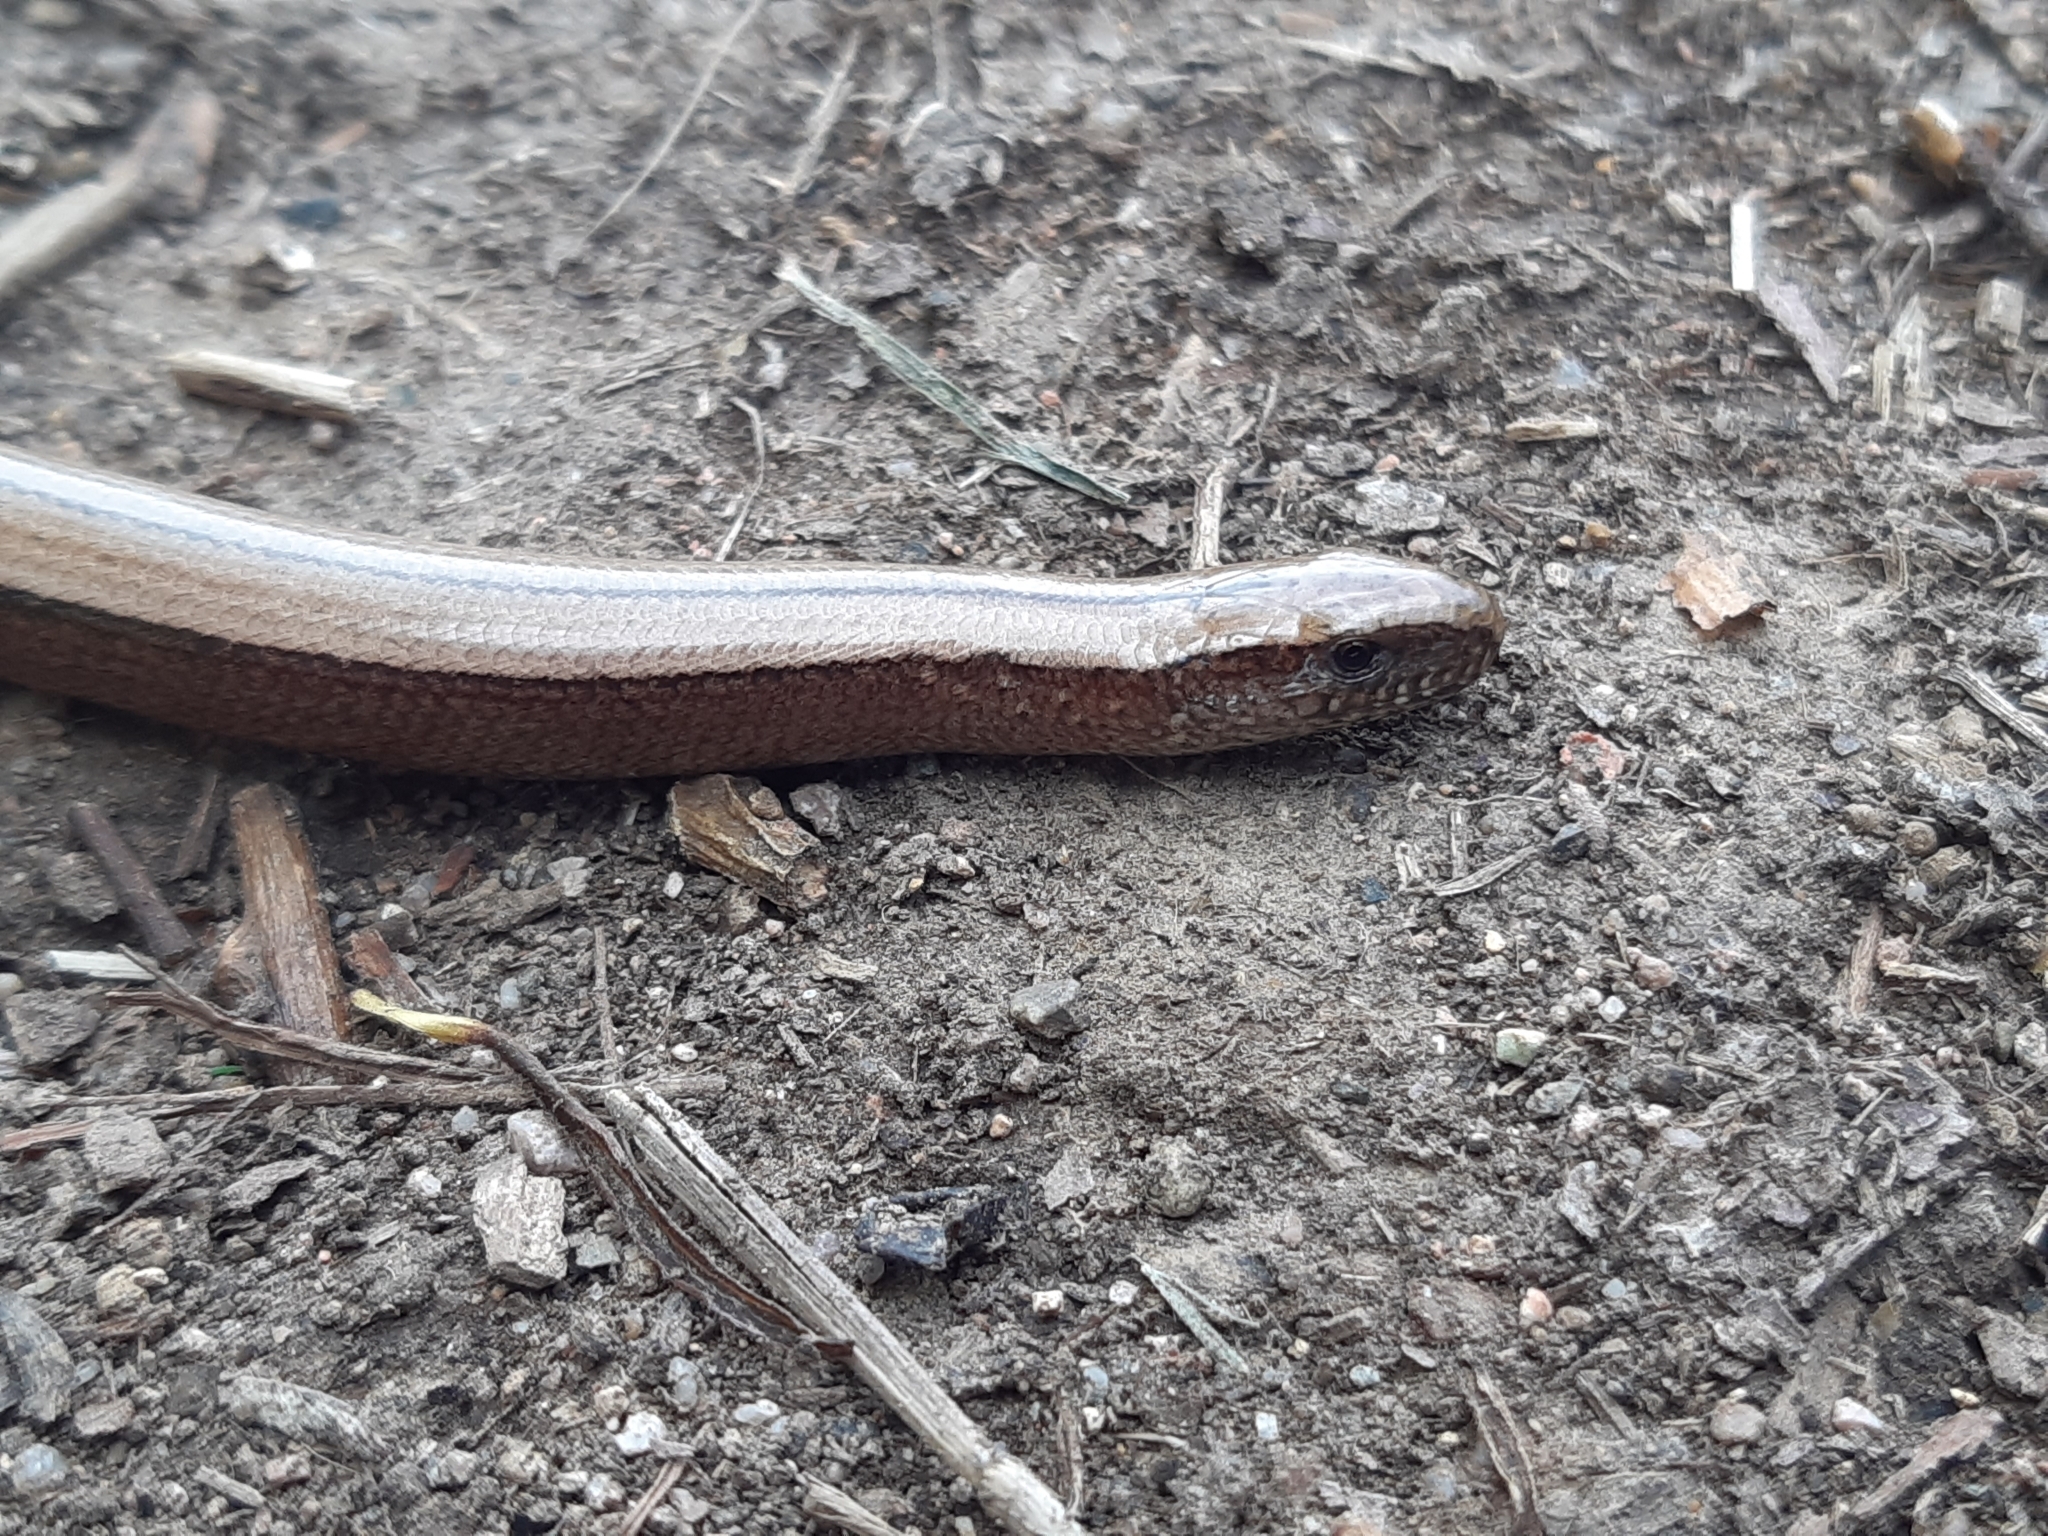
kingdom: Animalia
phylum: Chordata
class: Squamata
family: Anguidae
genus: Anguis
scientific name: Anguis fragilis
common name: Slow worm
